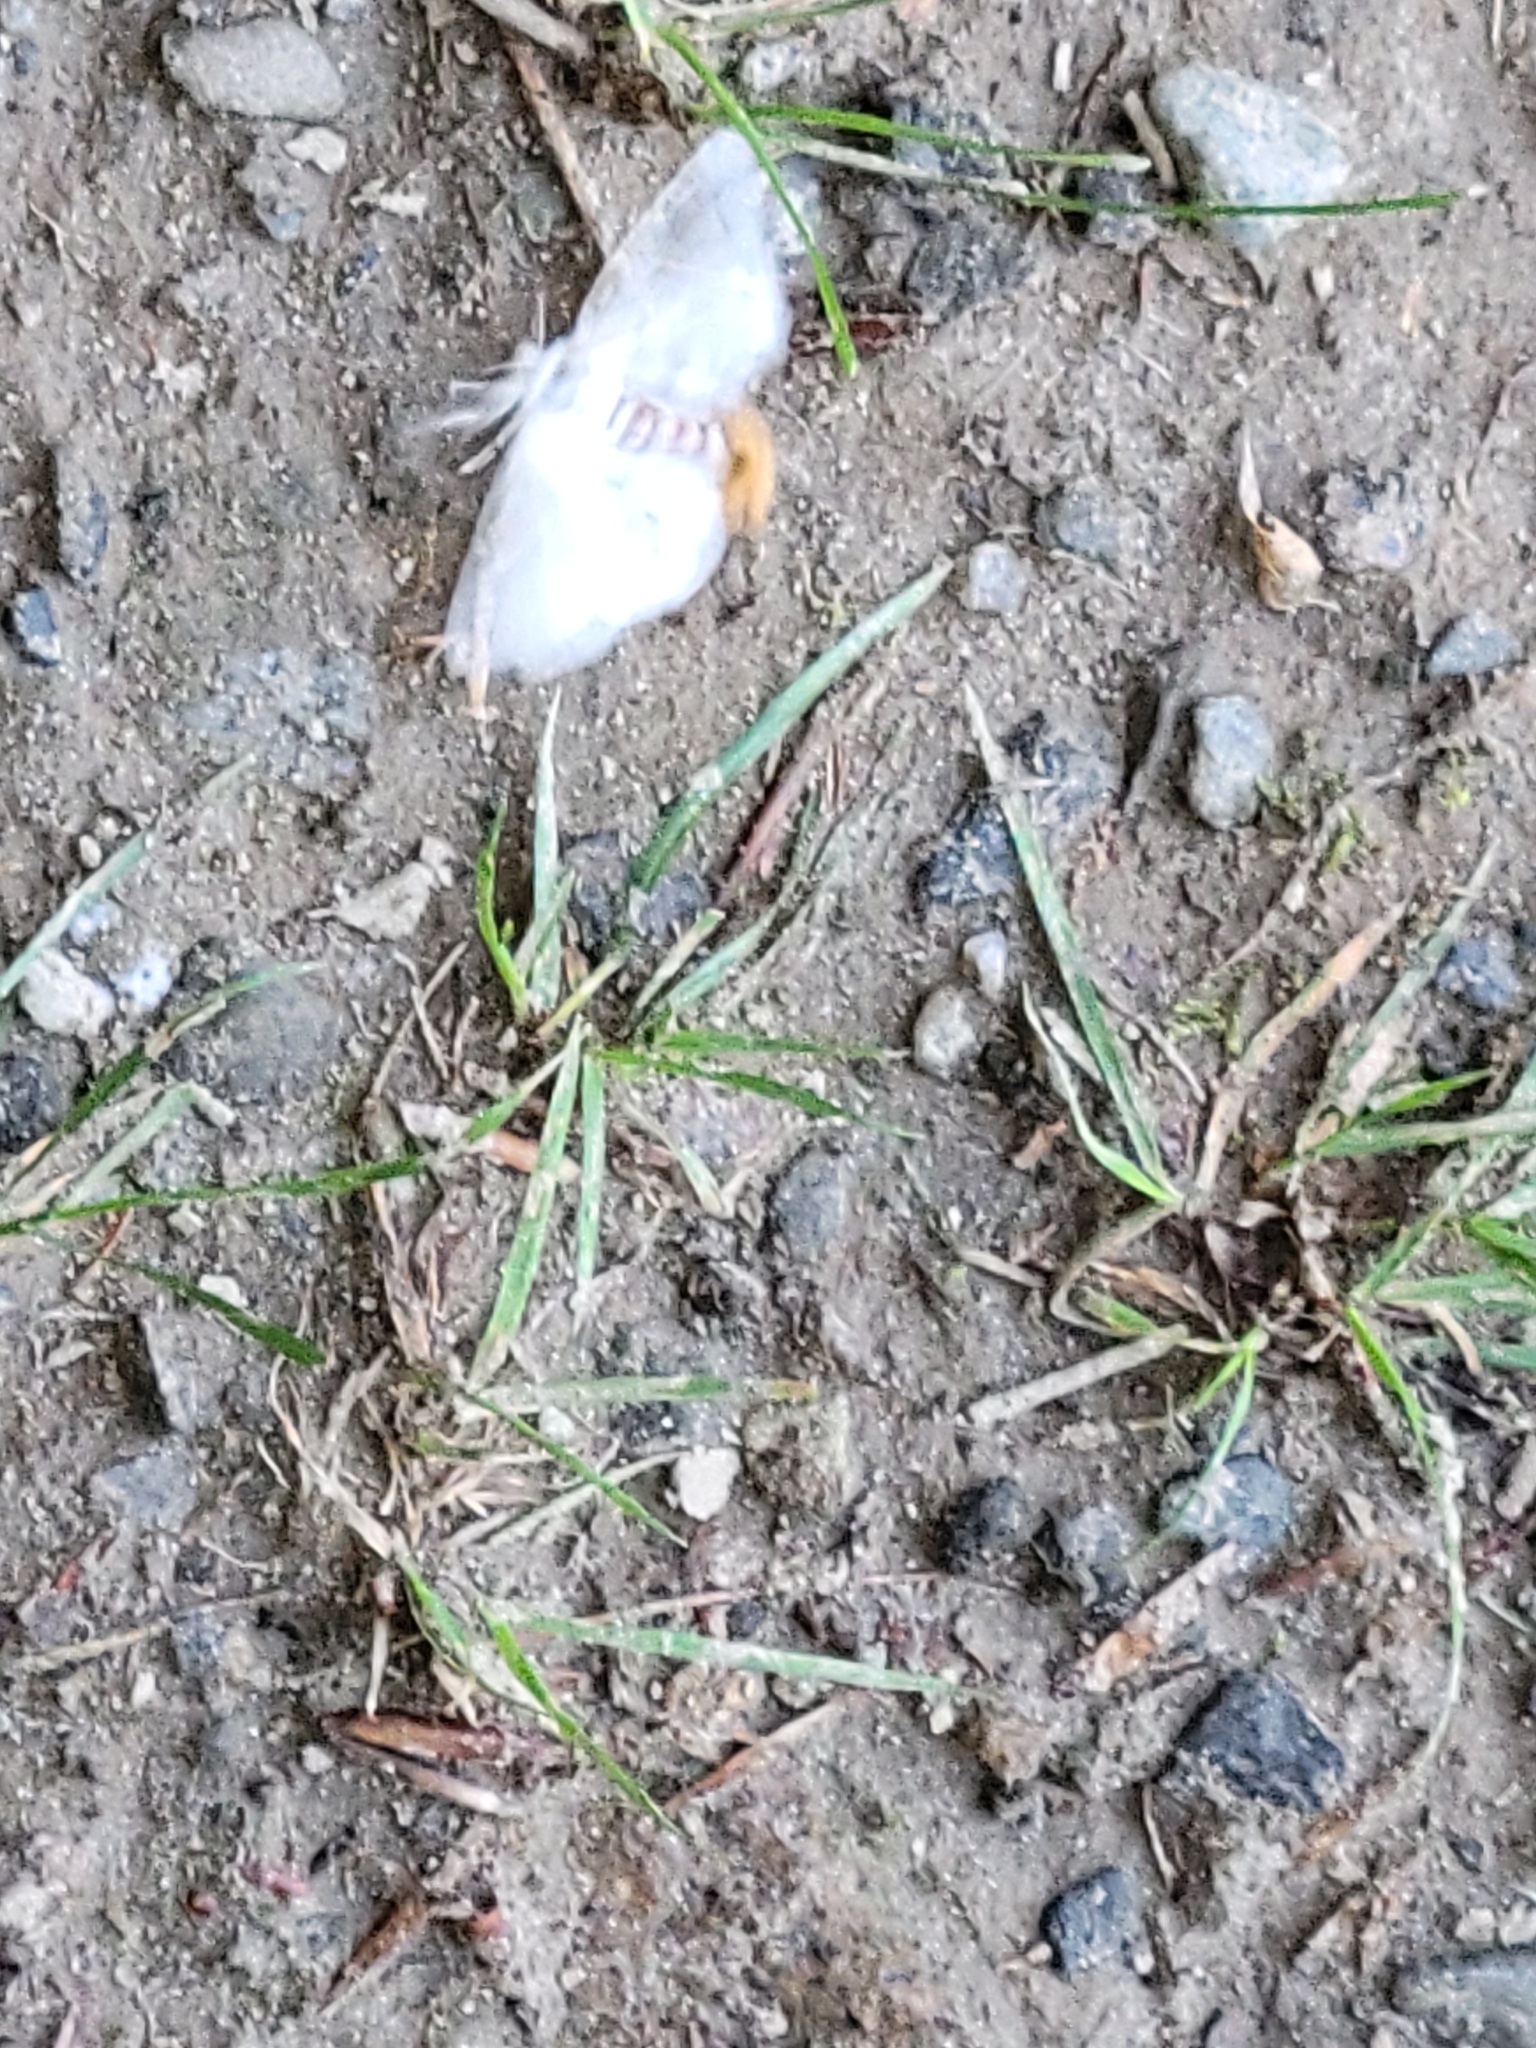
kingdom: Animalia
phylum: Arthropoda
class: Insecta
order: Lepidoptera
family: Erebidae
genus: Euproctis
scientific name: Euproctis chrysorrhoea
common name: Brown-tail
